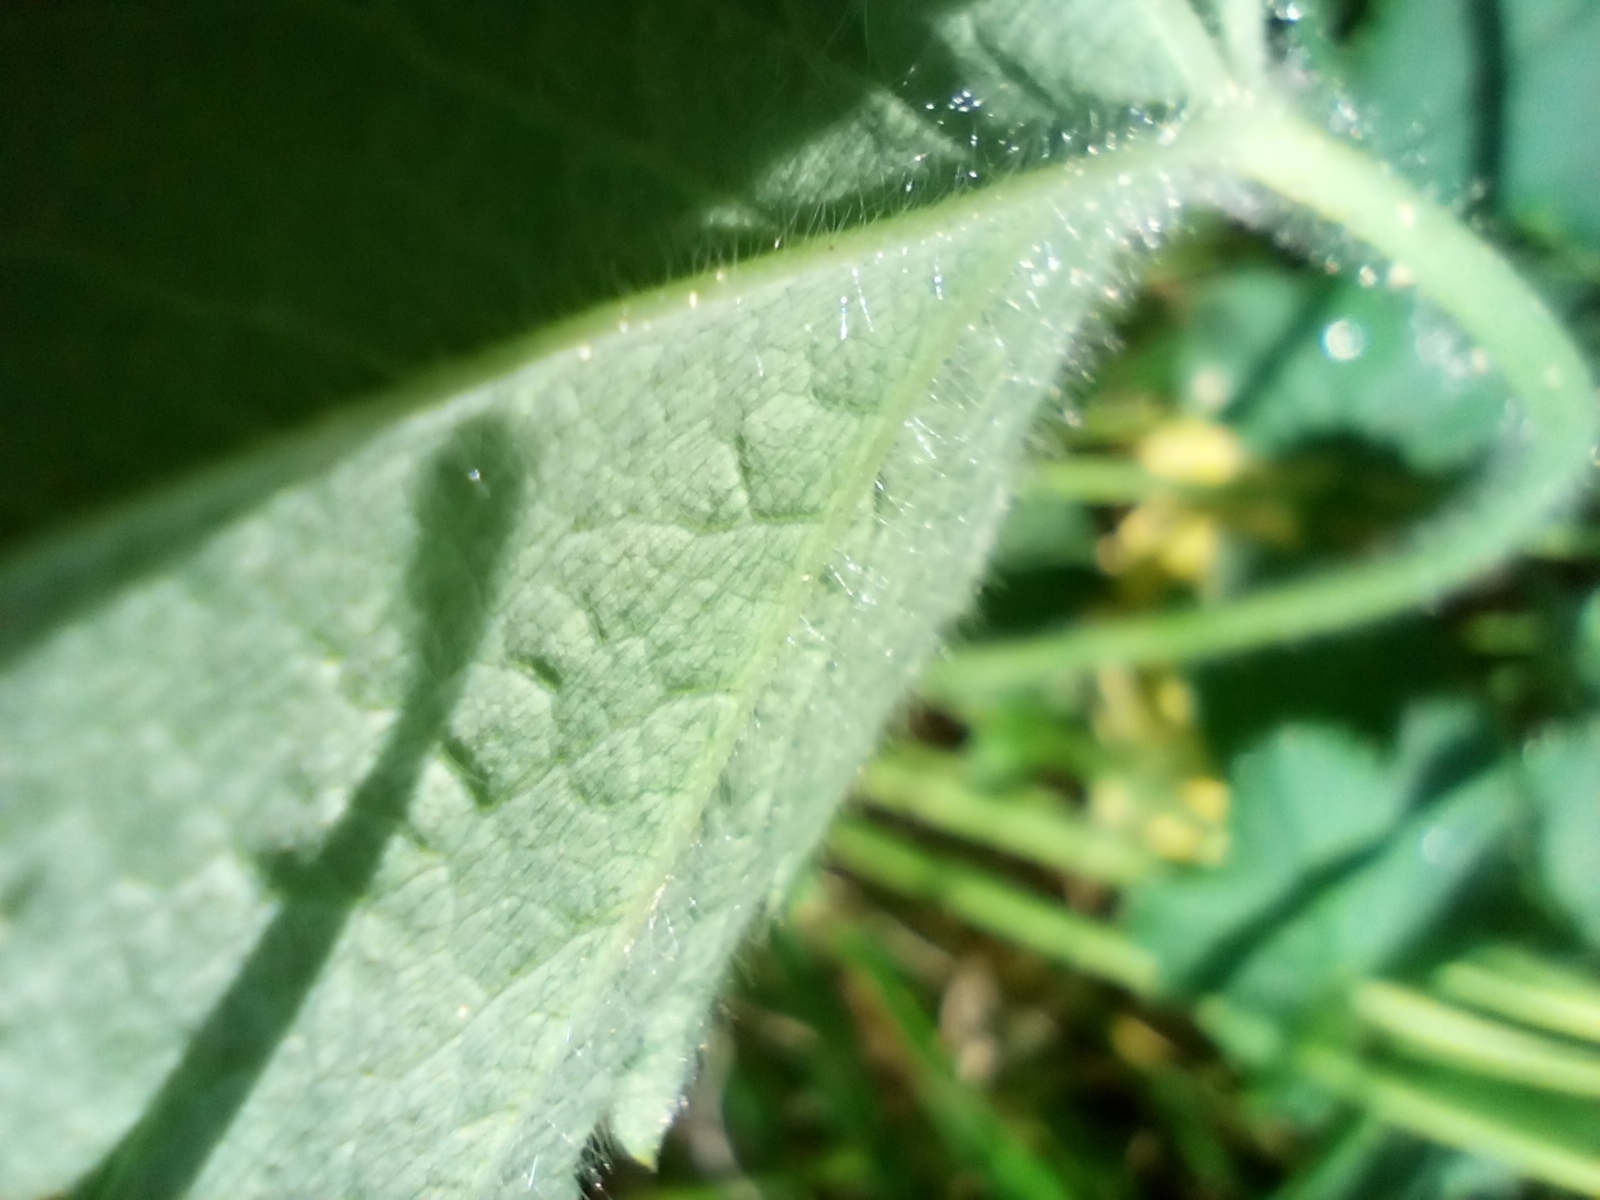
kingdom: Plantae
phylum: Tracheophyta
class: Magnoliopsida
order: Rosales
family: Rosaceae
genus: Alchemilla
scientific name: Alchemilla monticola
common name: Hairy lady's mantle
